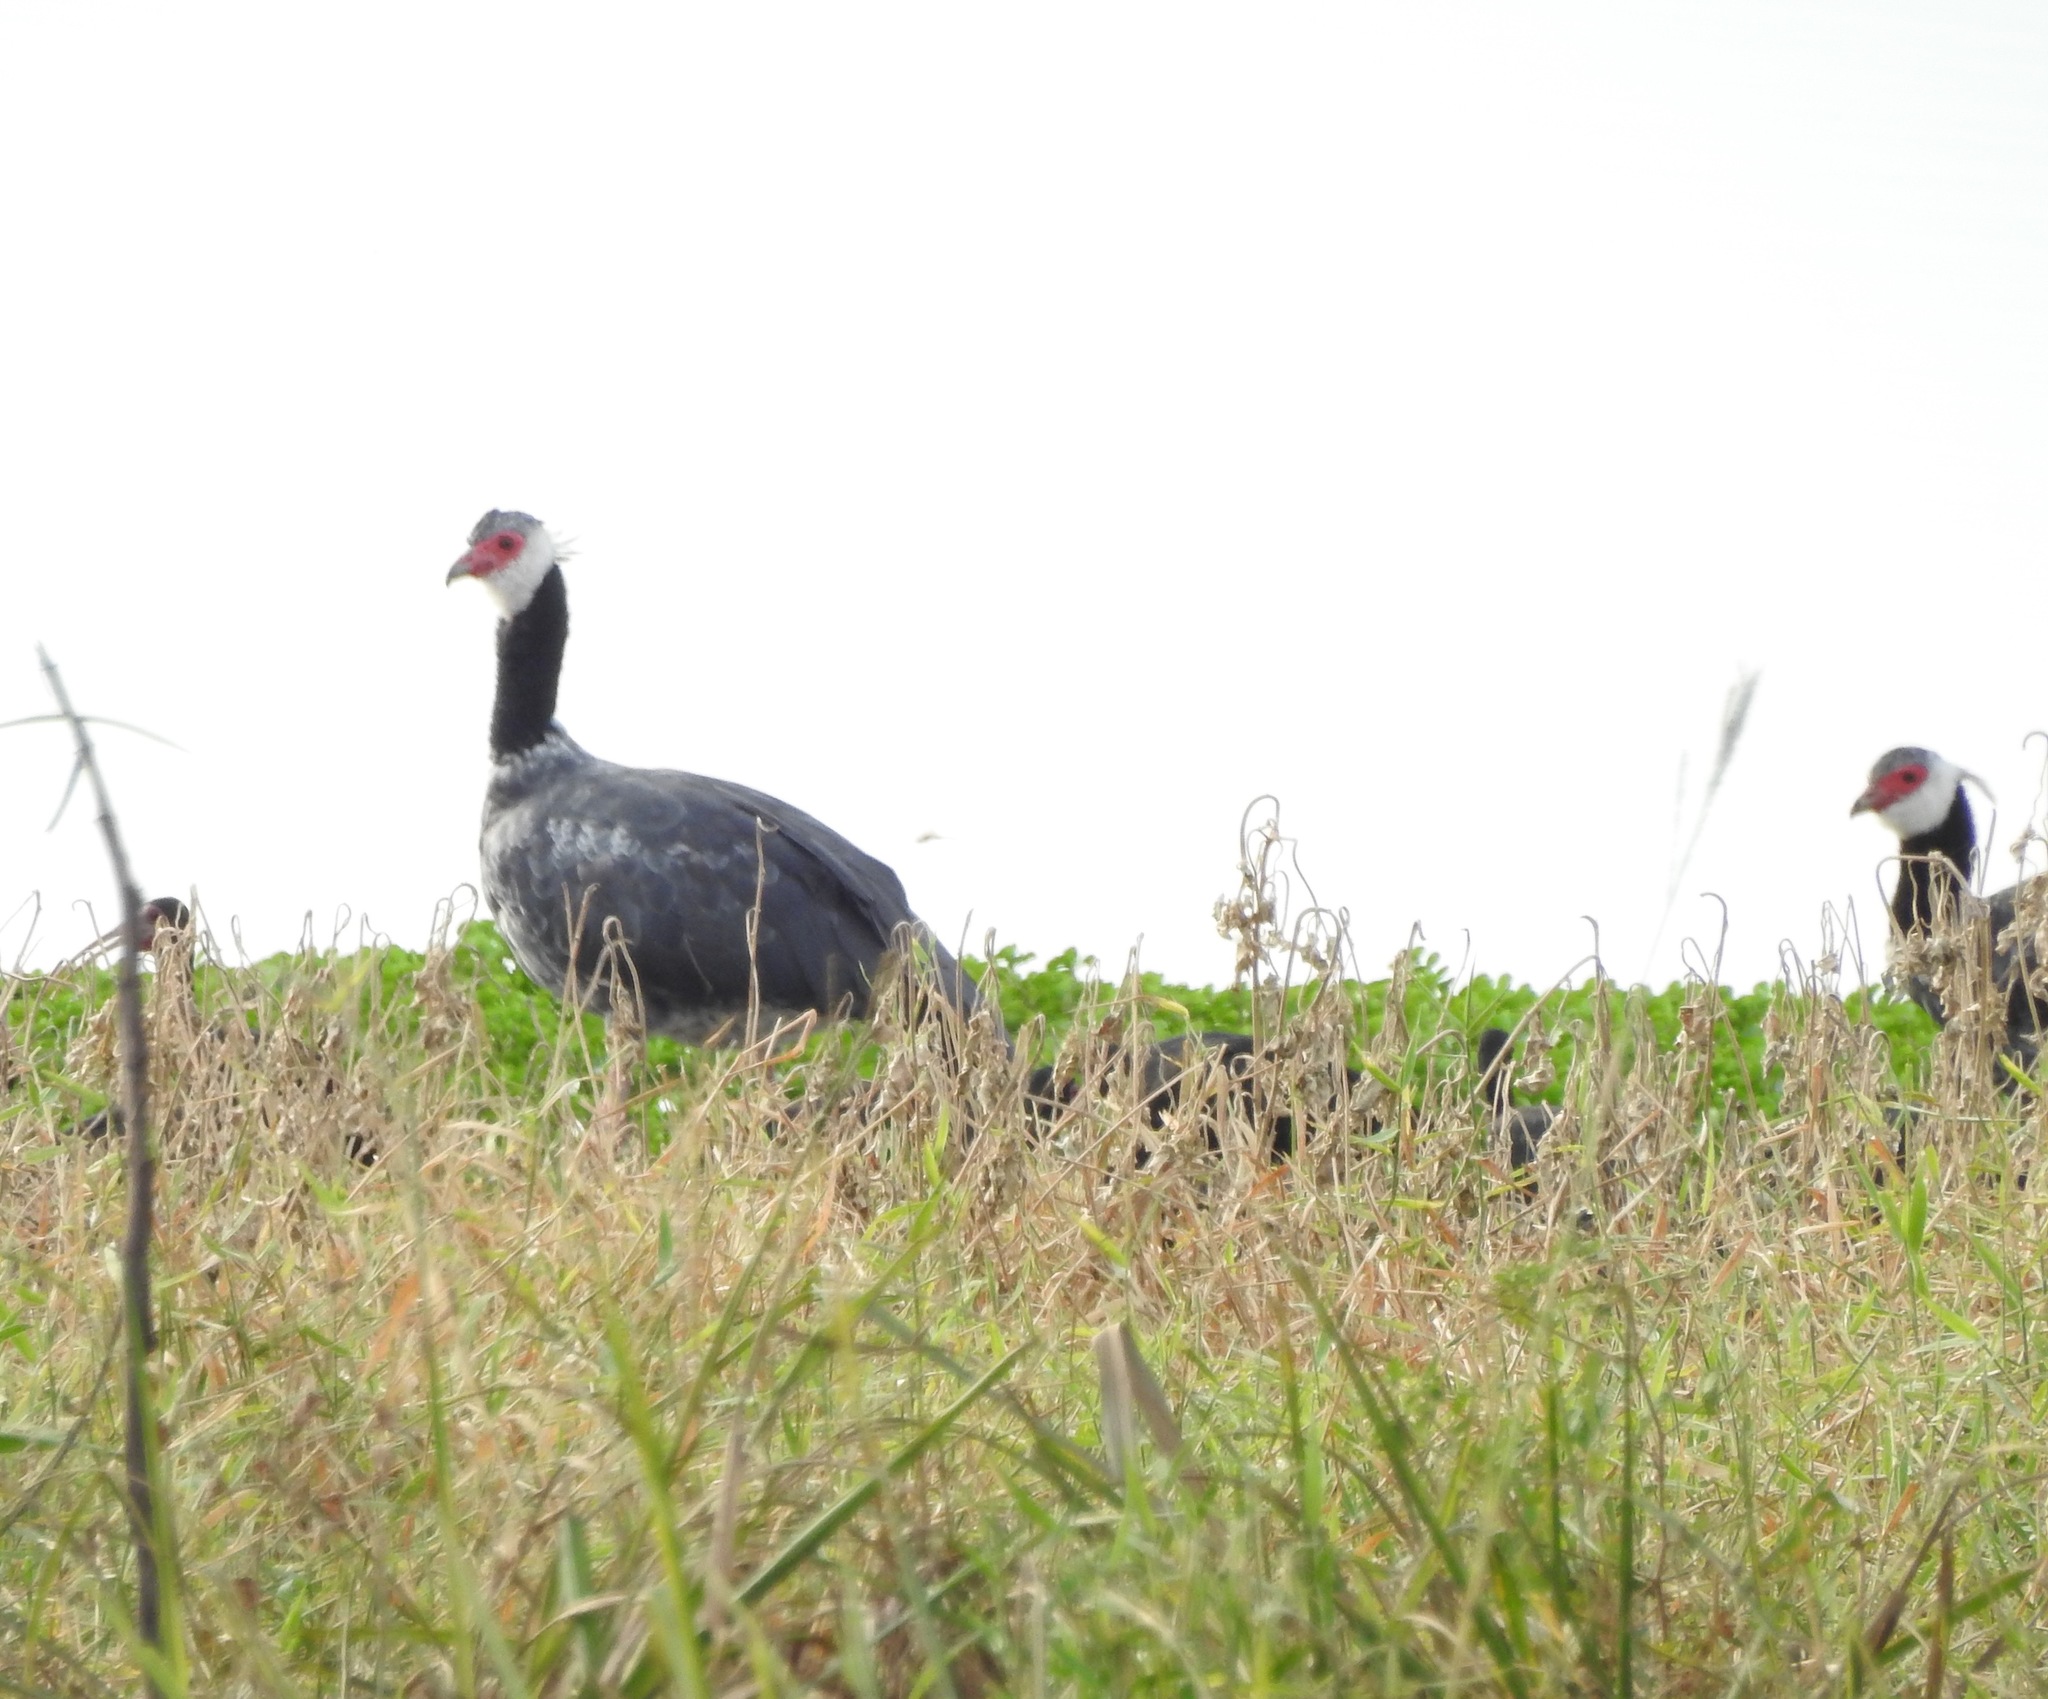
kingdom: Animalia
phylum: Chordata
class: Aves
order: Anseriformes
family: Anhimidae
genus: Chauna
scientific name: Chauna chavaria
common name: Northern screamer
